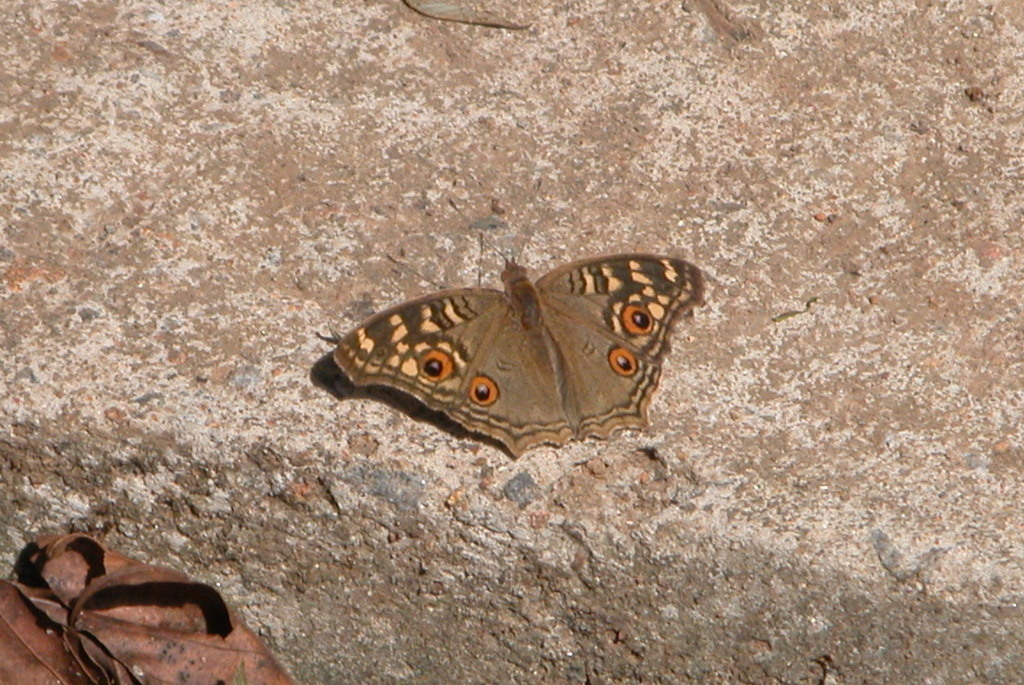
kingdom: Animalia
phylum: Arthropoda
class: Insecta
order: Lepidoptera
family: Nymphalidae
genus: Junonia
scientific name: Junonia lemonias
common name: Lemon pansy
